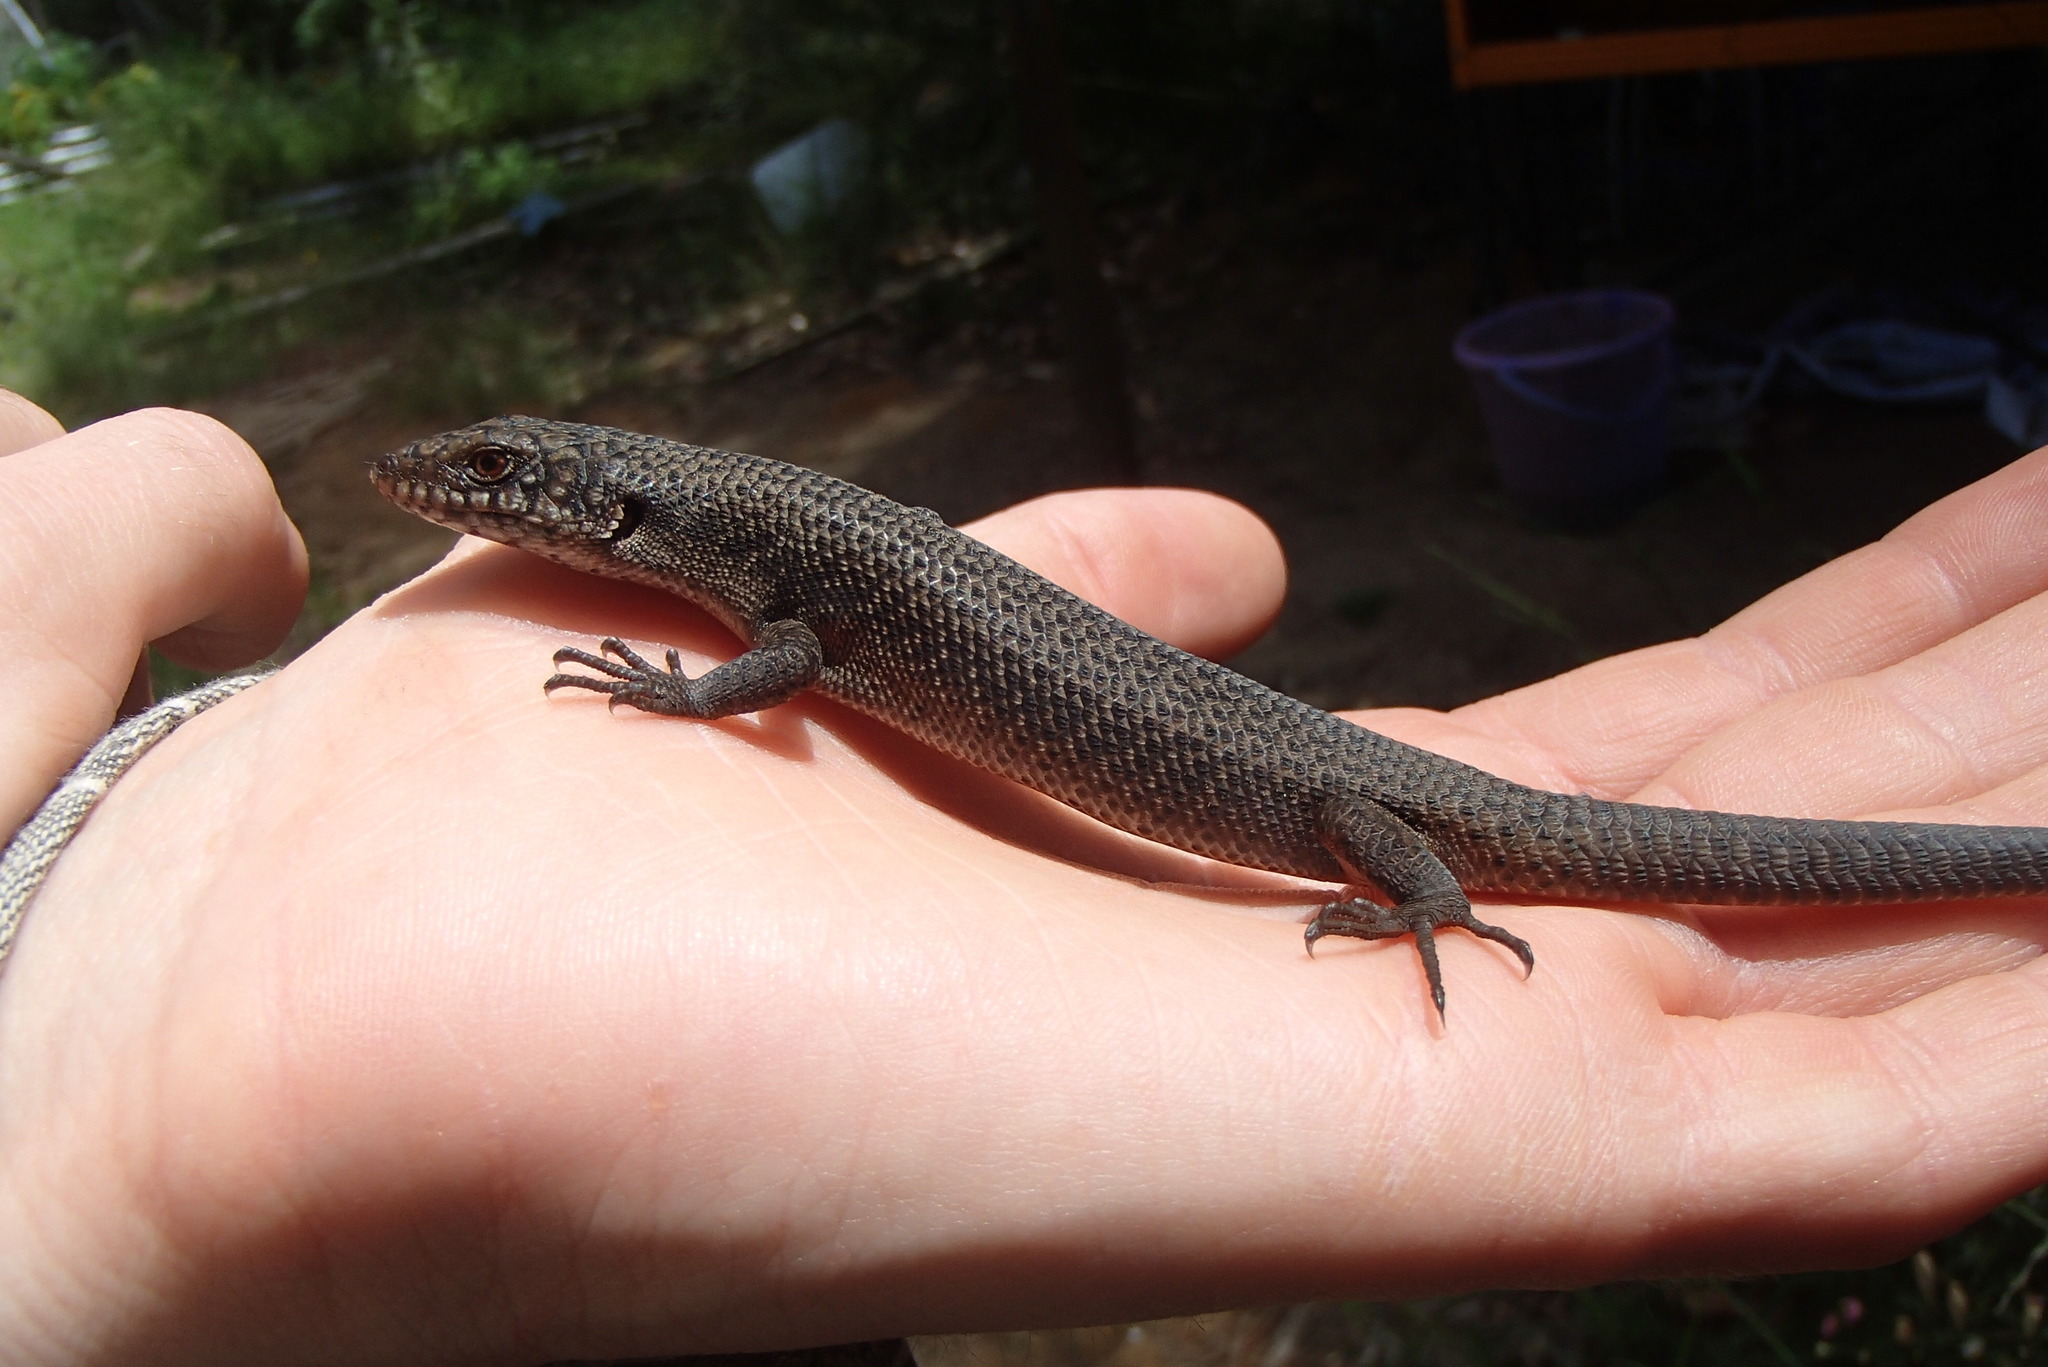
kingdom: Animalia
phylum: Chordata
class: Squamata
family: Scincidae
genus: Egernia
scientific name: Egernia saxatilis
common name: Black crevice-skink
